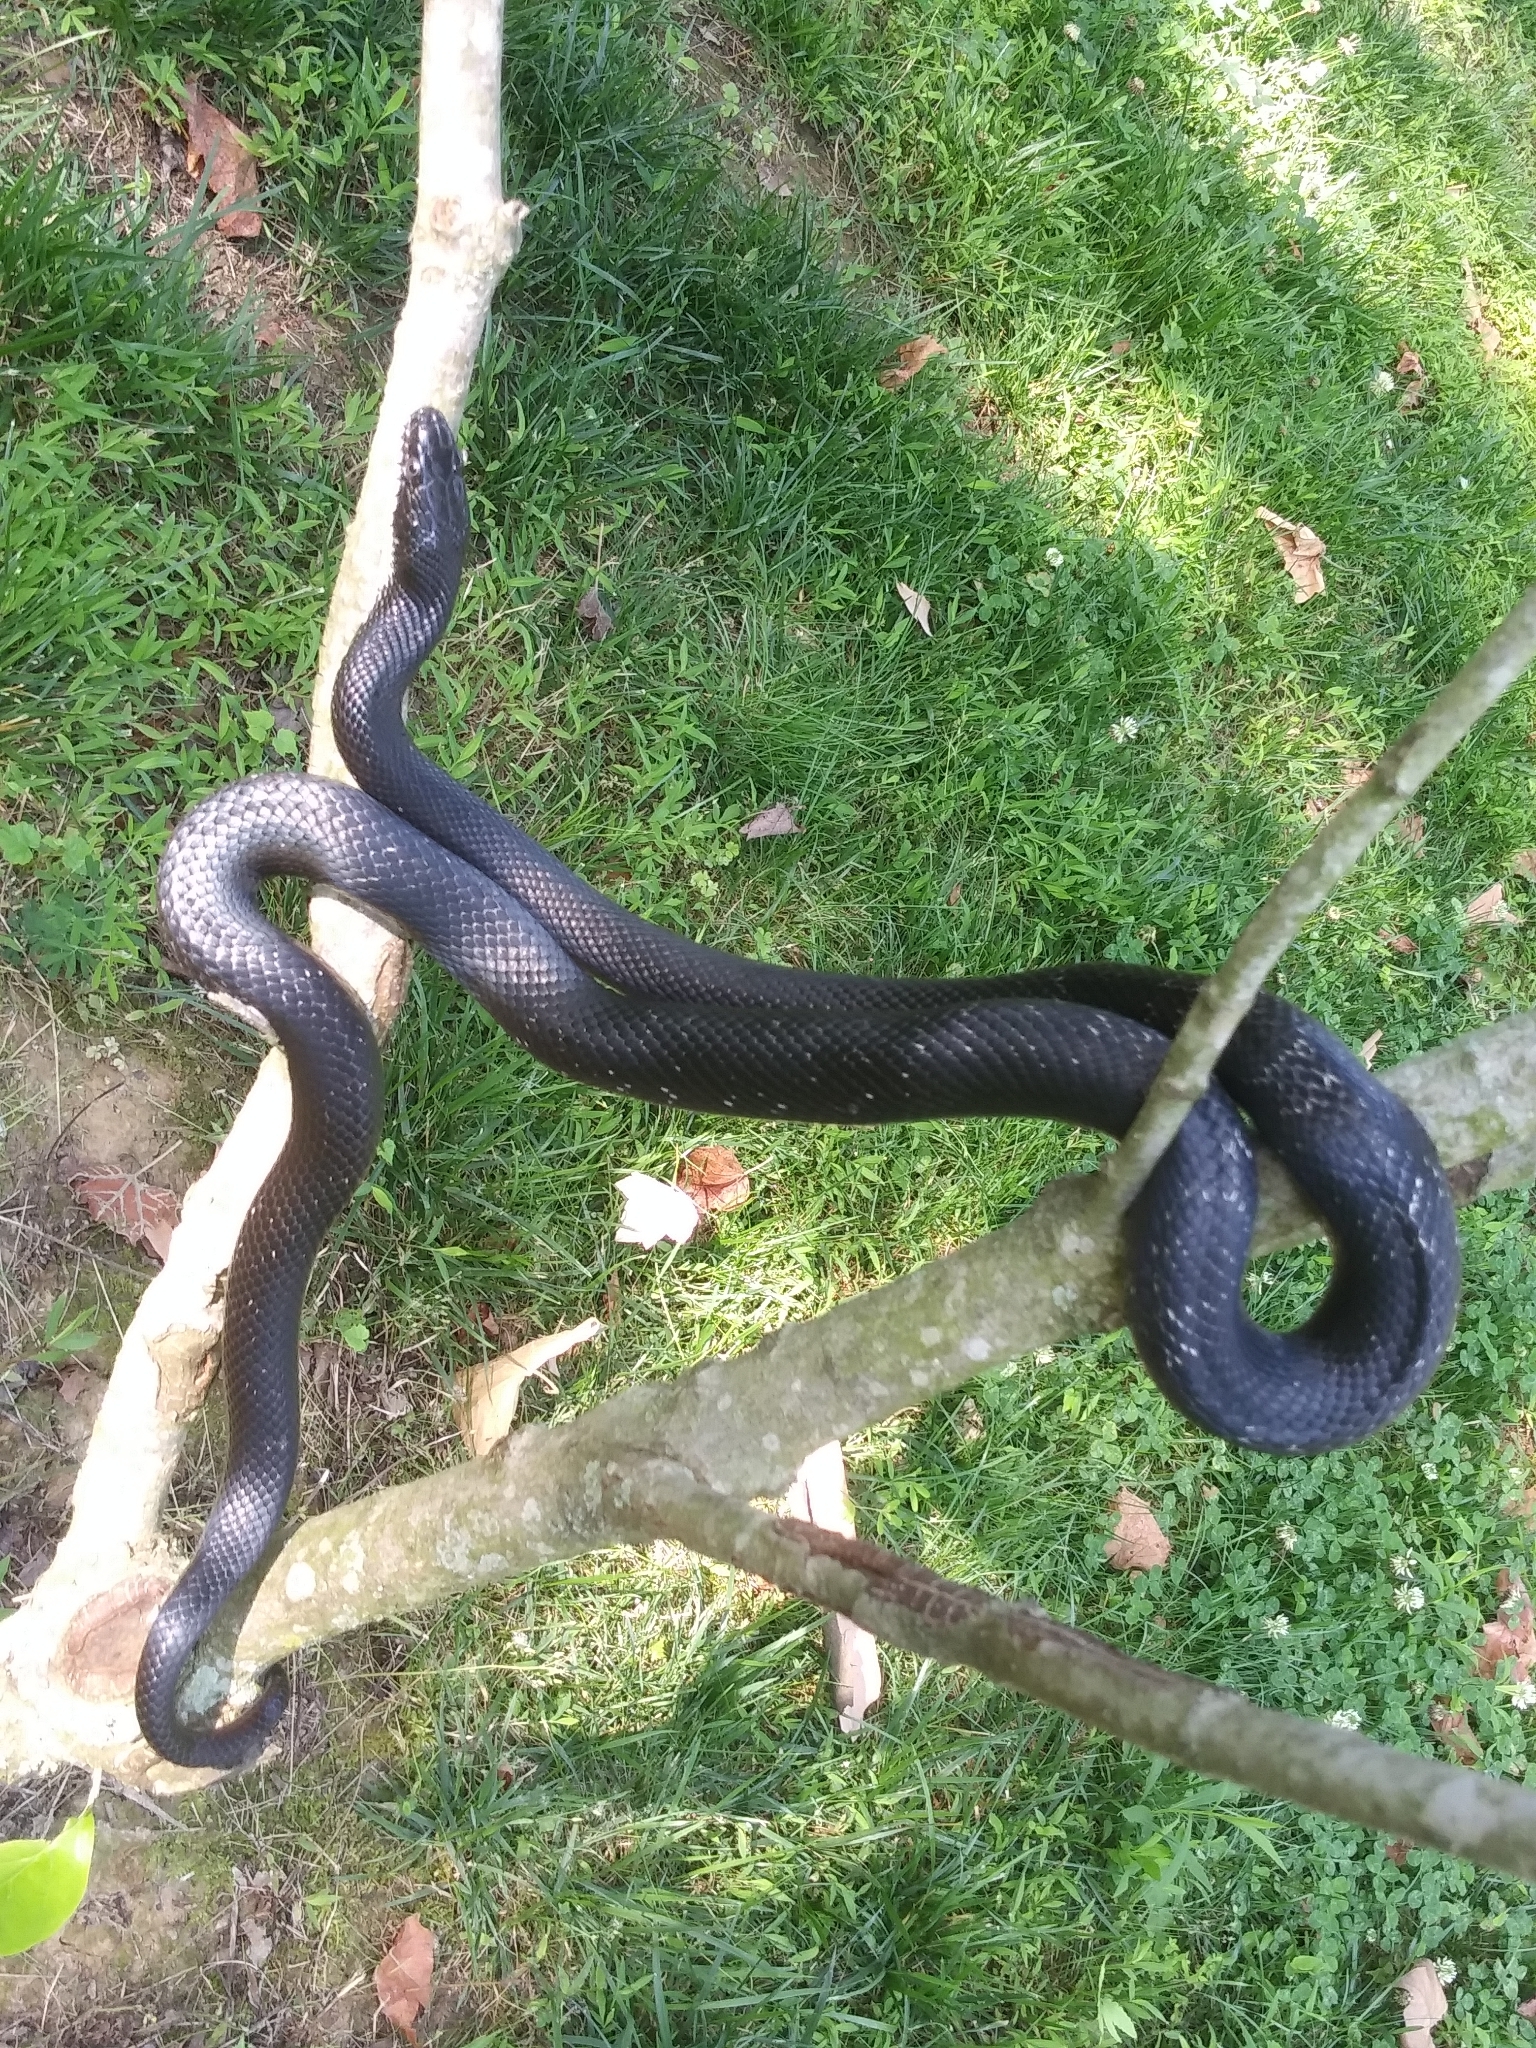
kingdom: Animalia
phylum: Chordata
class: Squamata
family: Colubridae
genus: Pantherophis
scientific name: Pantherophis
